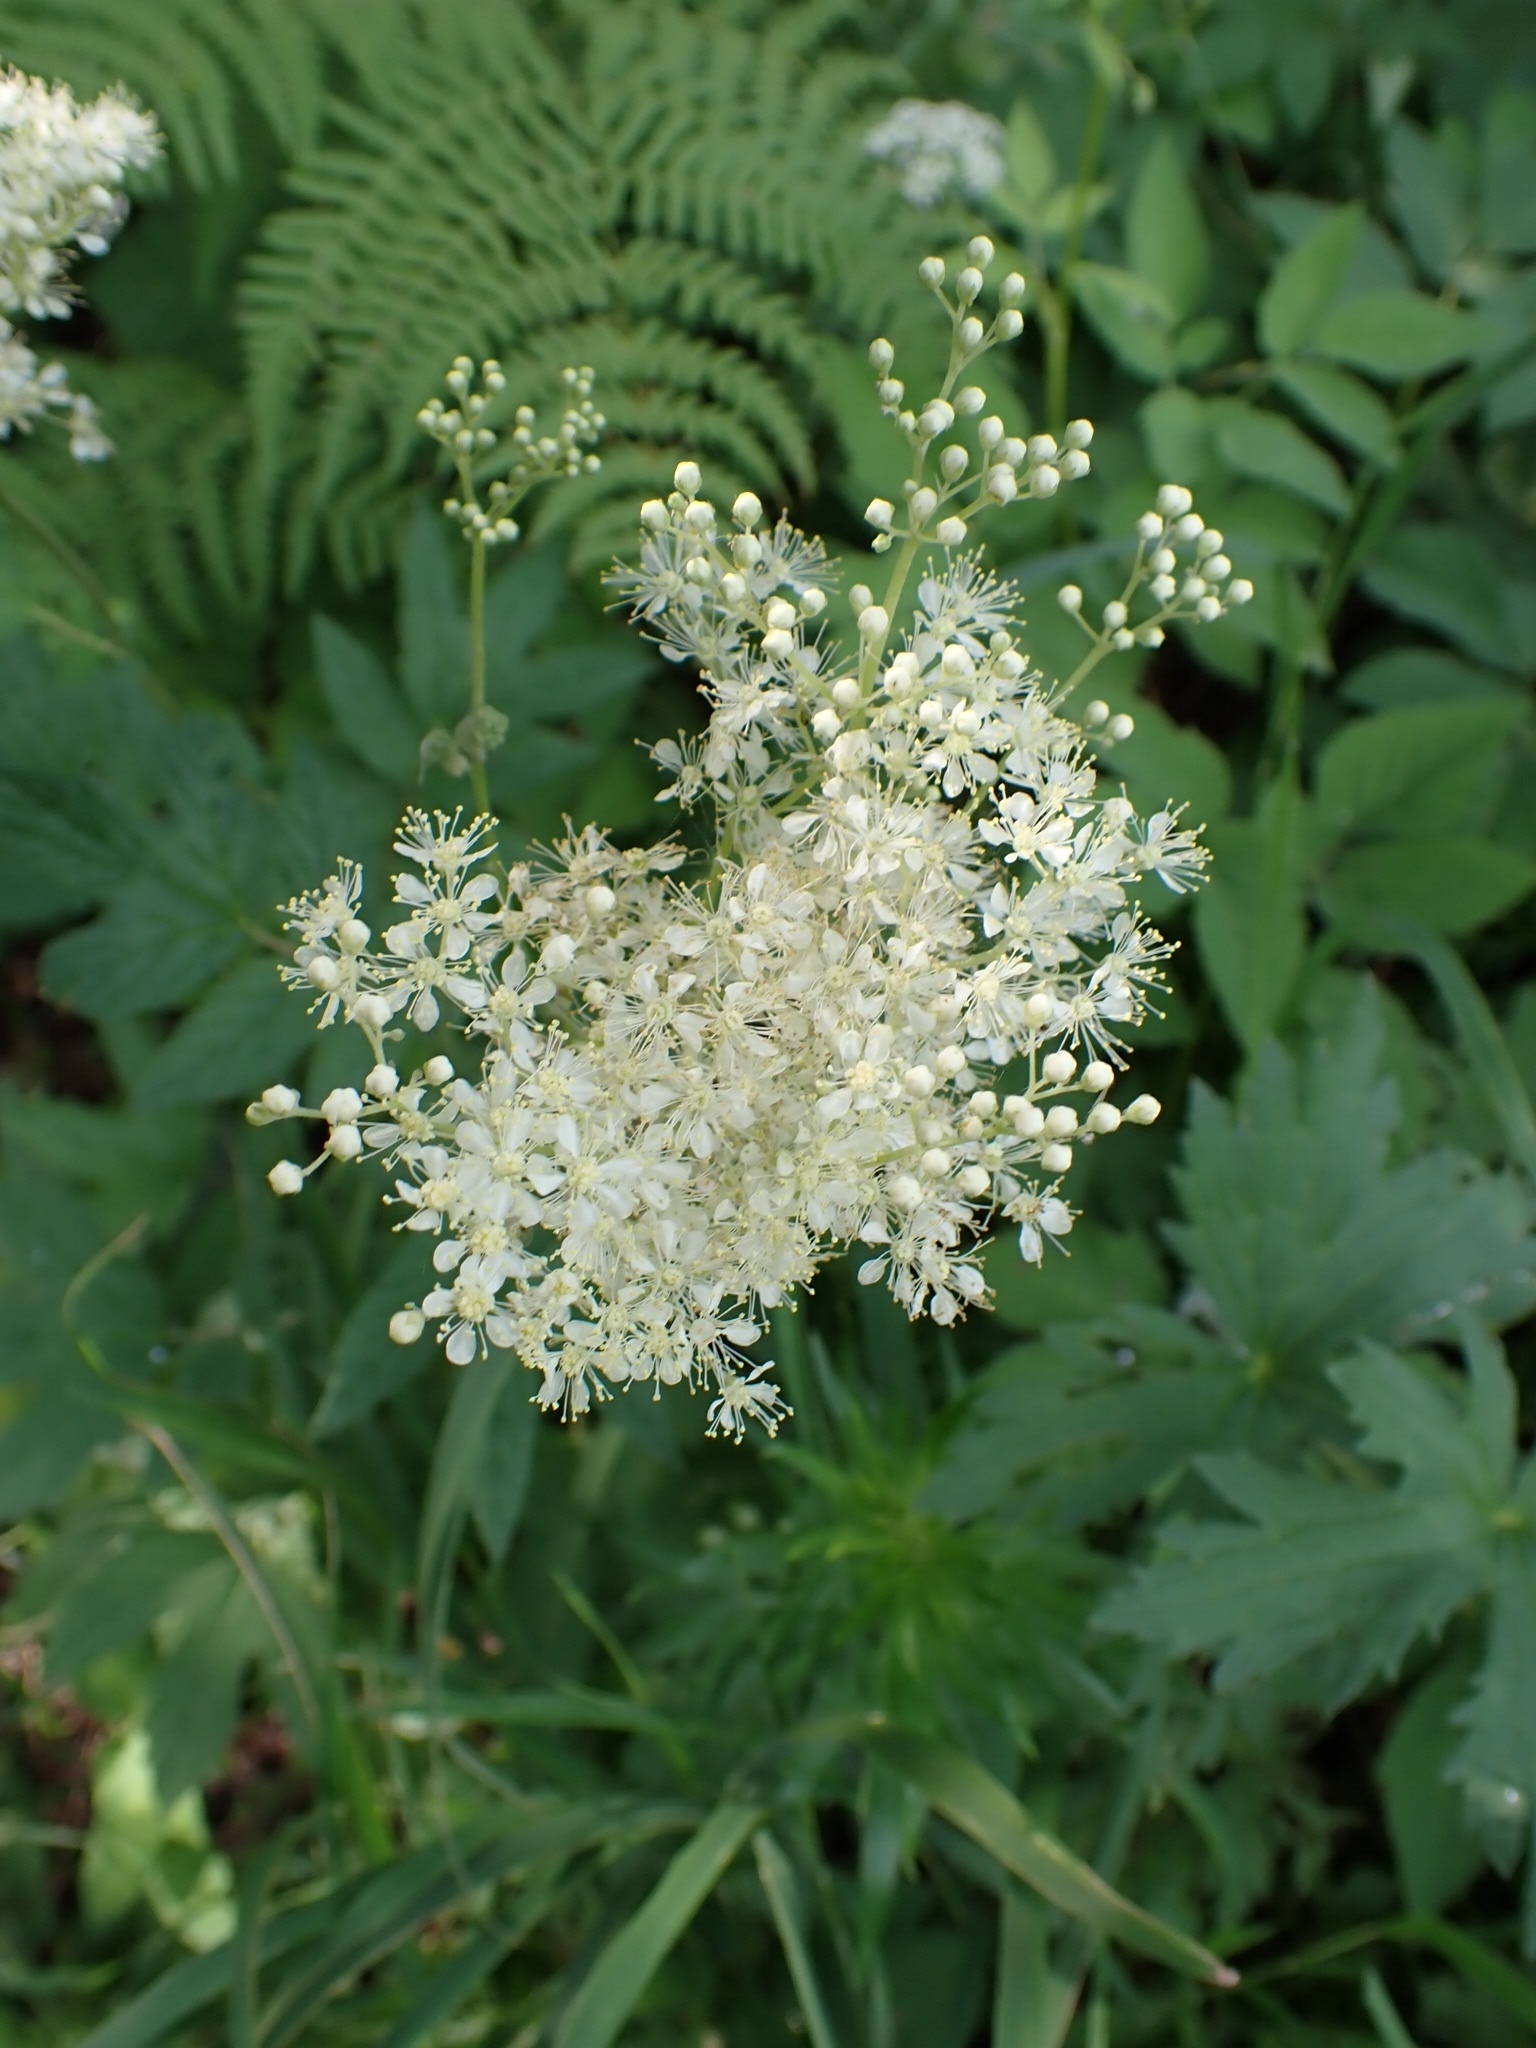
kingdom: Plantae
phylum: Tracheophyta
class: Magnoliopsida
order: Rosales
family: Rosaceae
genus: Filipendula
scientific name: Filipendula ulmaria
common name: Meadowsweet
